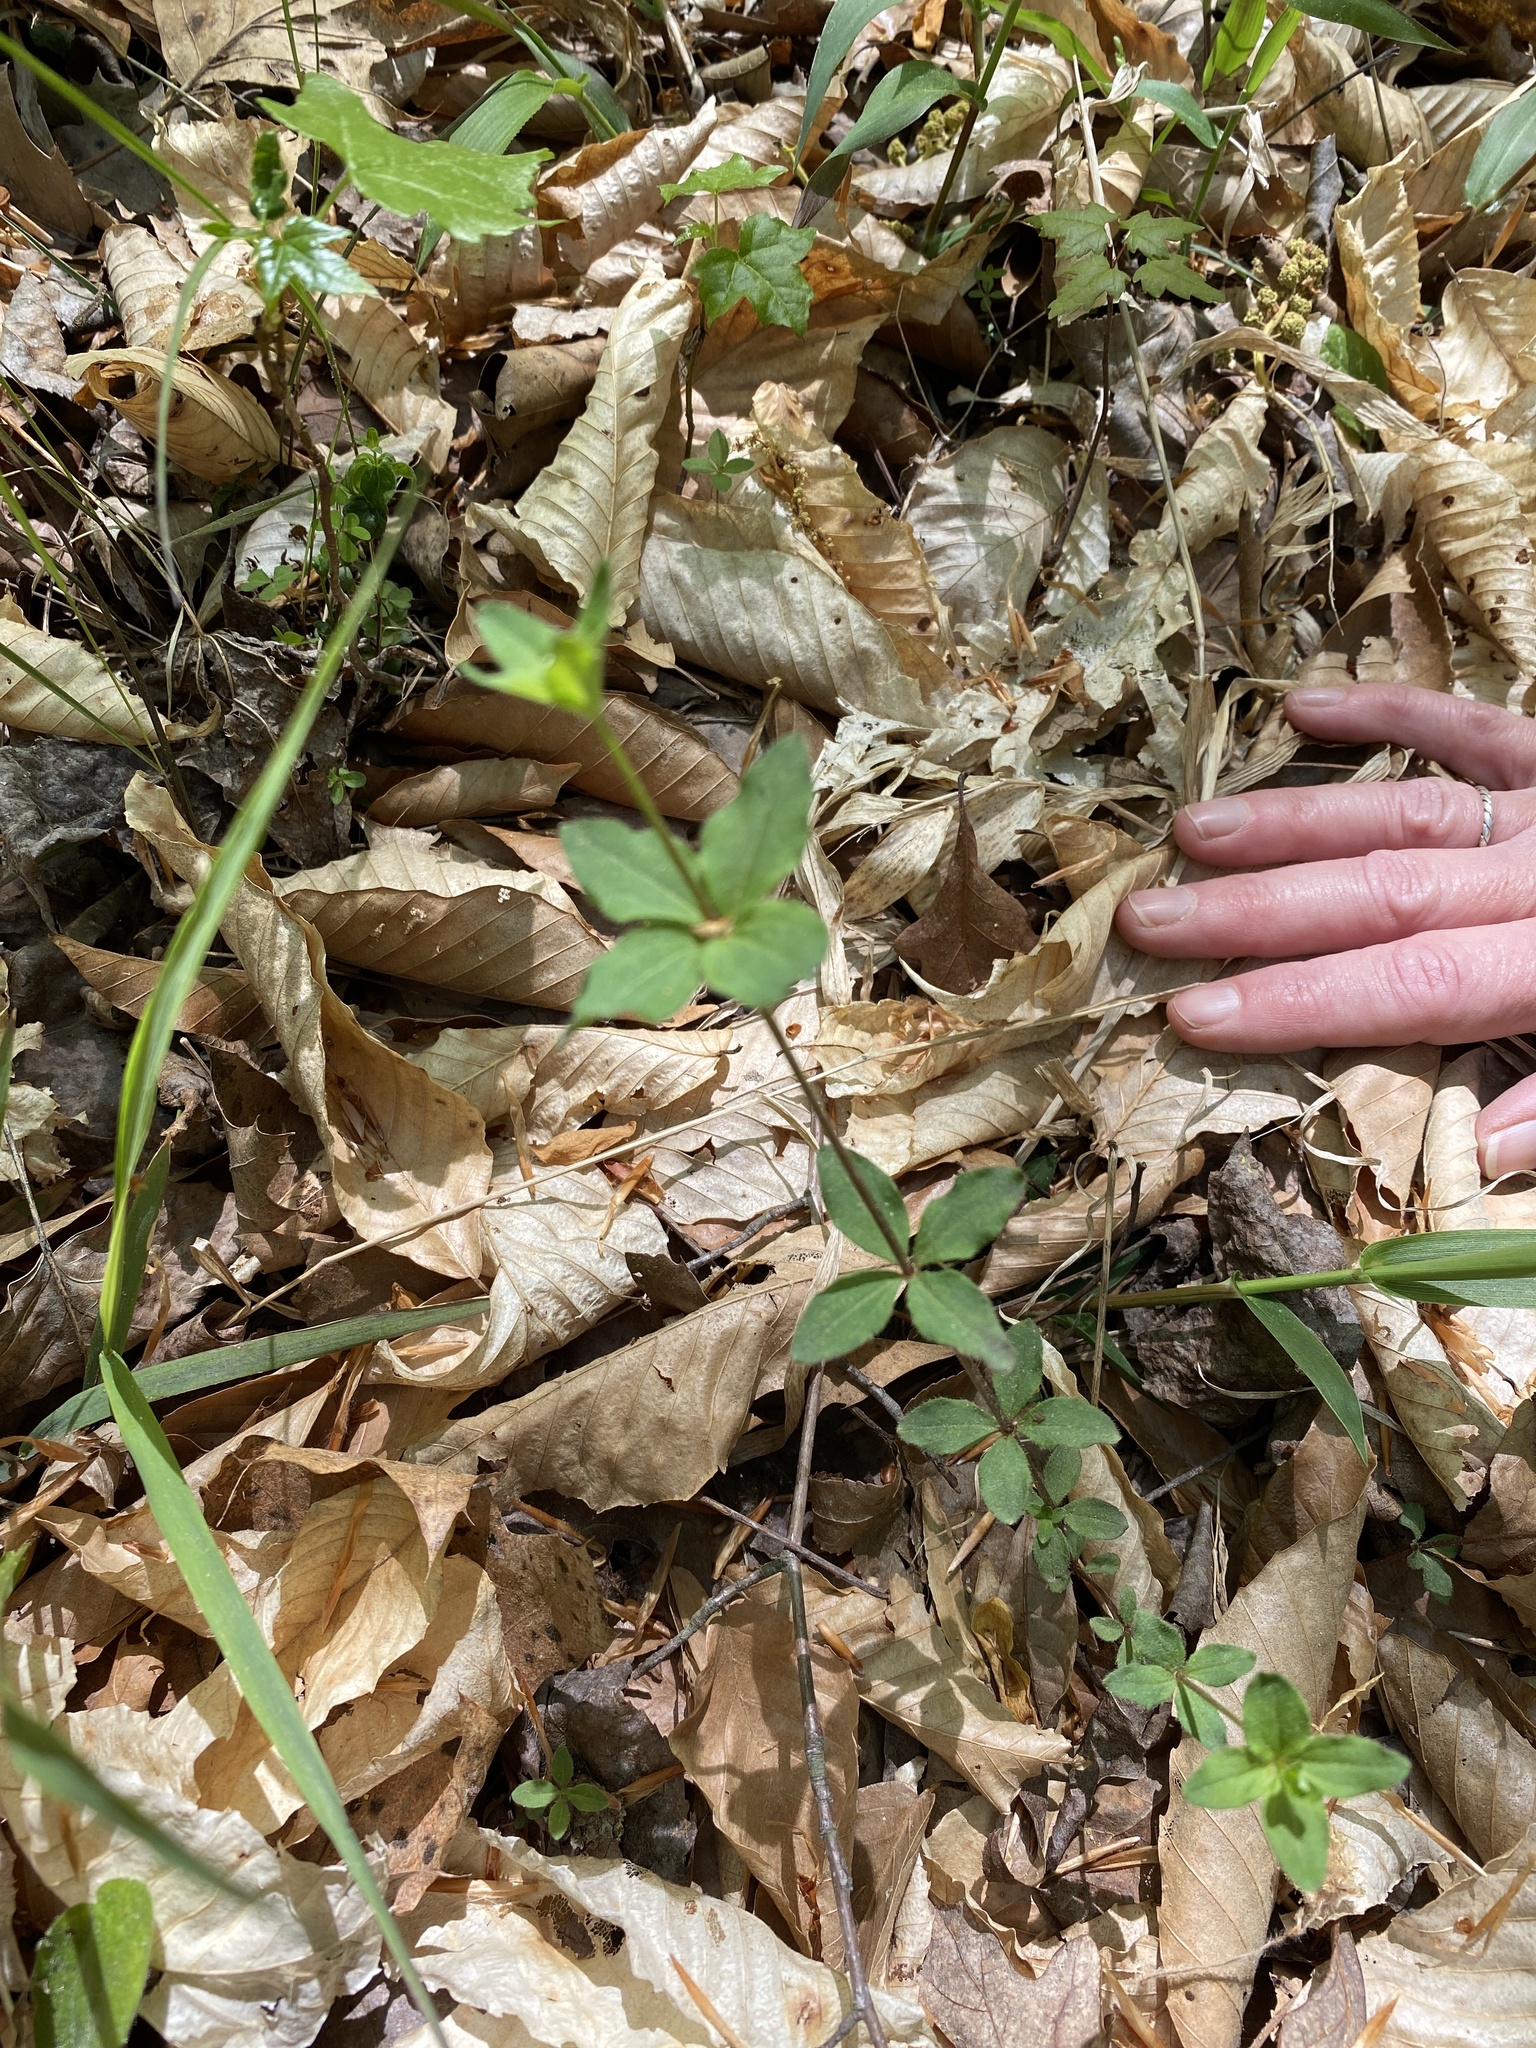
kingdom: Plantae
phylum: Tracheophyta
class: Magnoliopsida
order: Gentianales
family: Rubiaceae
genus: Galium
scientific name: Galium circaezans
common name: Forest bedstraw
